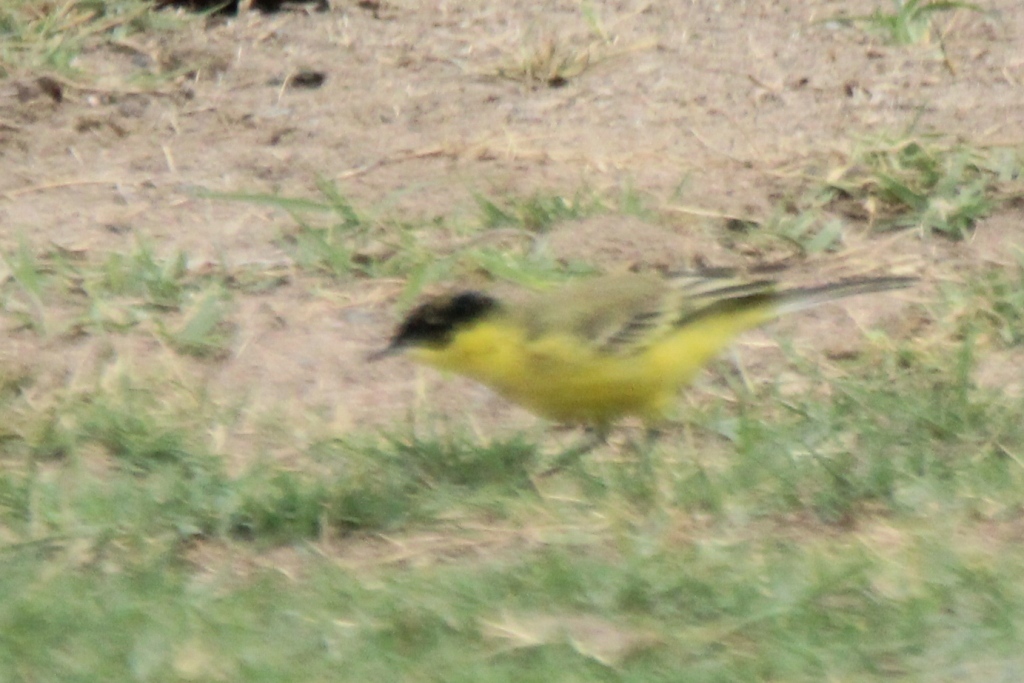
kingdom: Animalia
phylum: Chordata
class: Aves
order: Passeriformes
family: Motacillidae
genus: Motacilla
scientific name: Motacilla flava
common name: Western yellow wagtail
